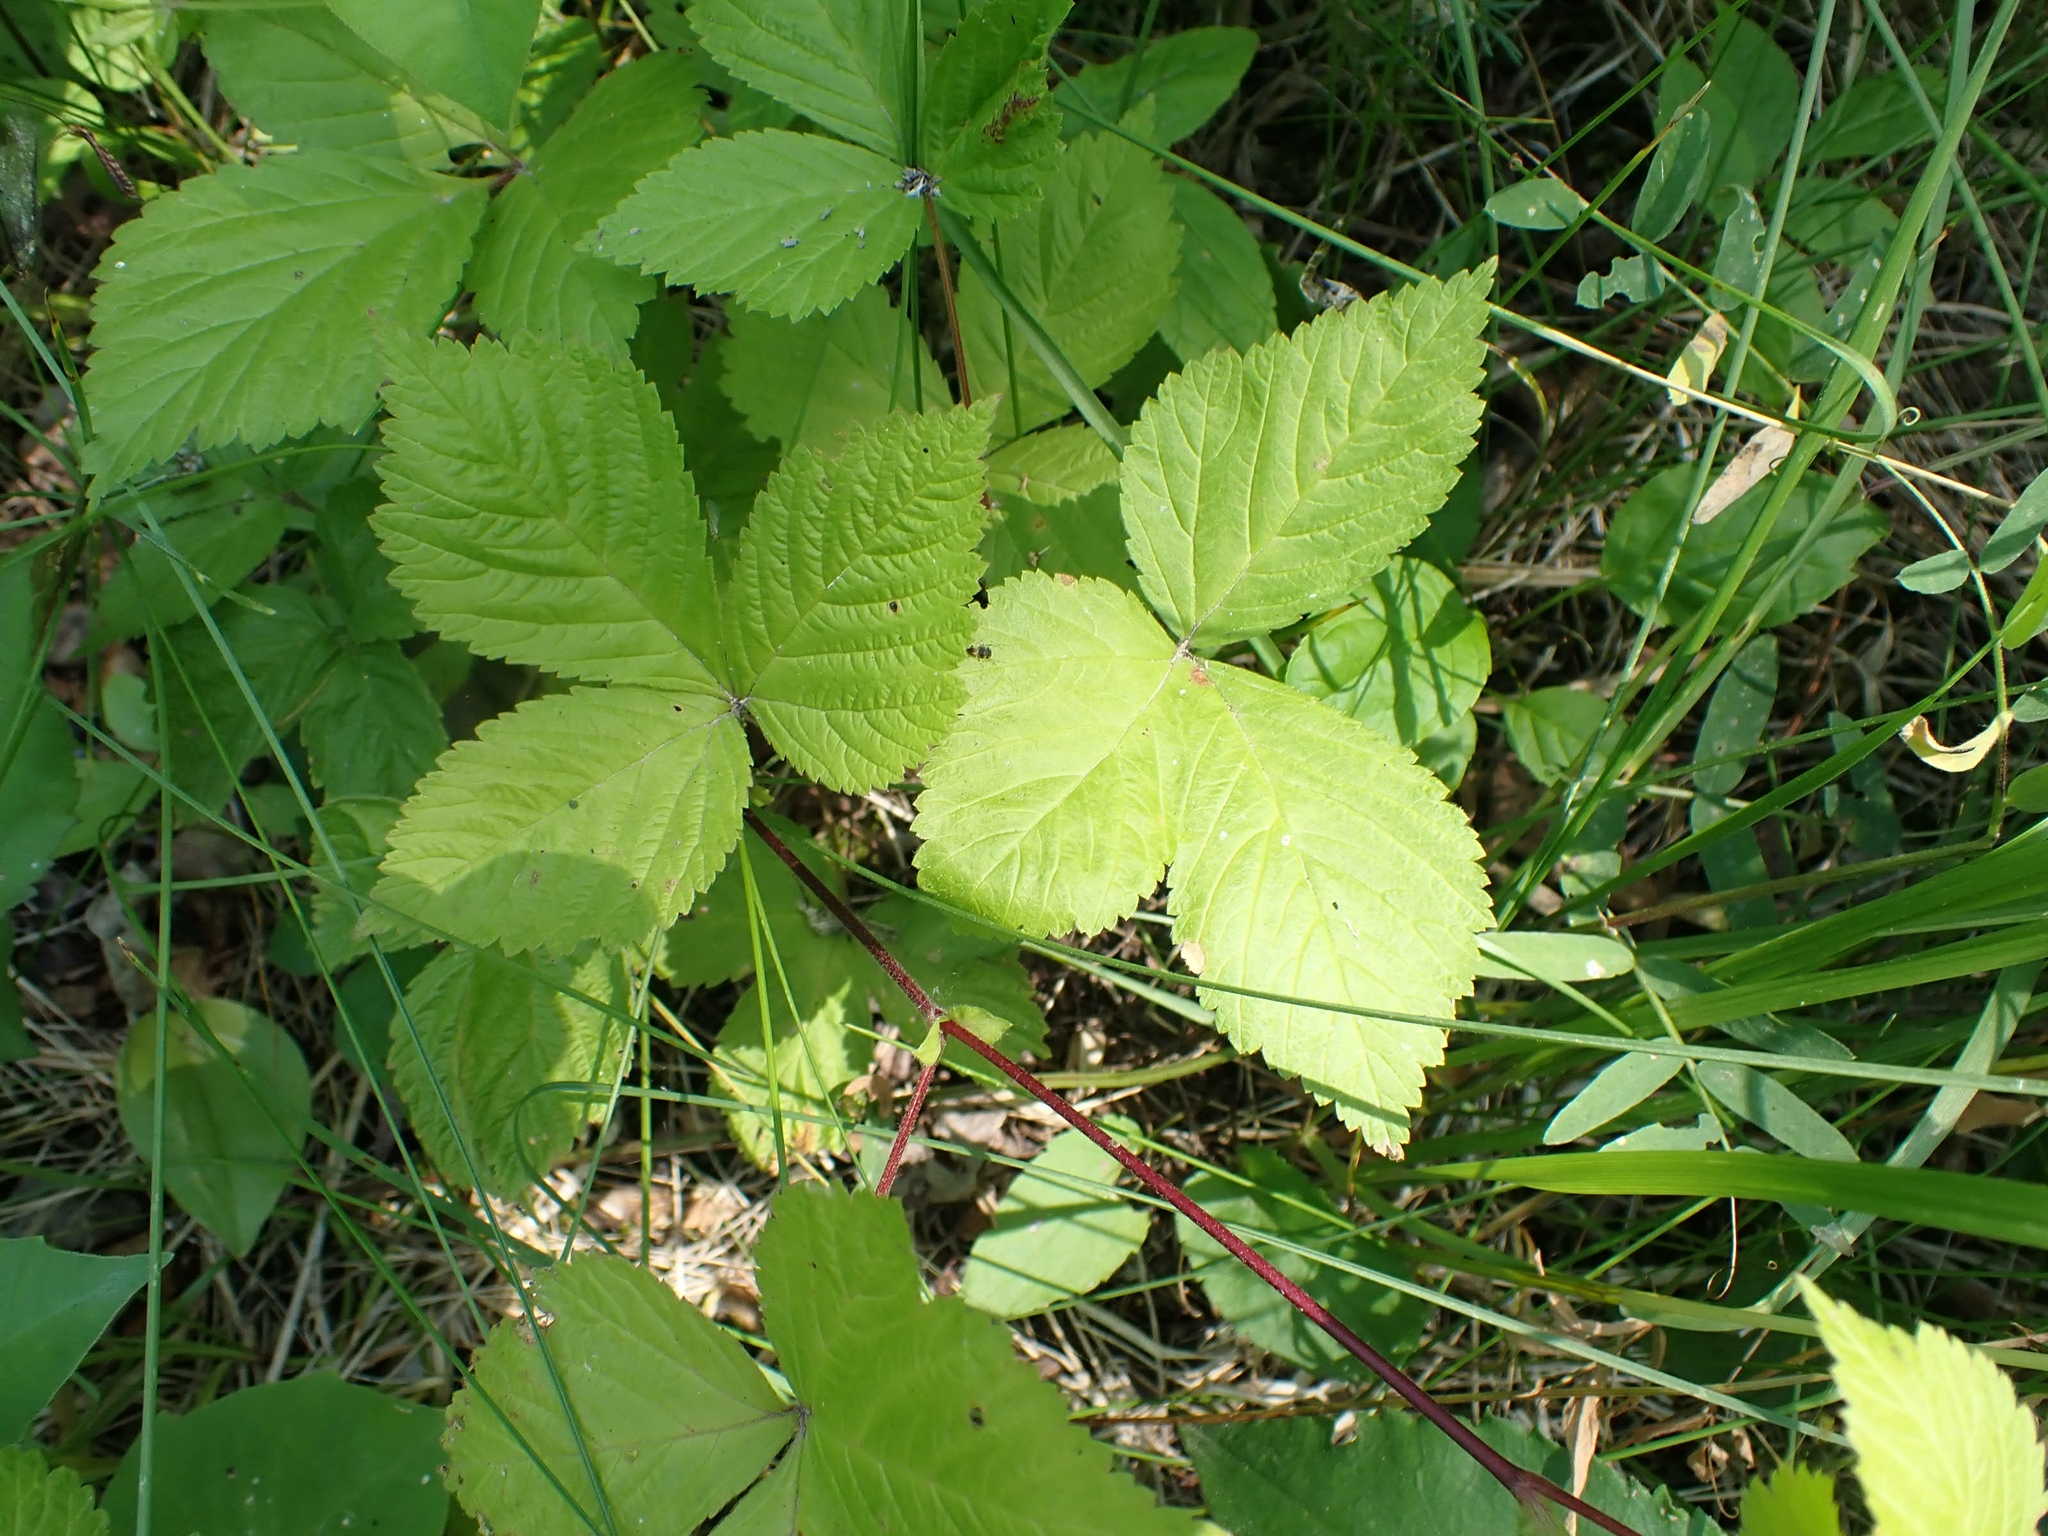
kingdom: Plantae
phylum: Tracheophyta
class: Magnoliopsida
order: Rosales
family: Rosaceae
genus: Rubus
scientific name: Rubus pubescens
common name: Dwarf raspberry
